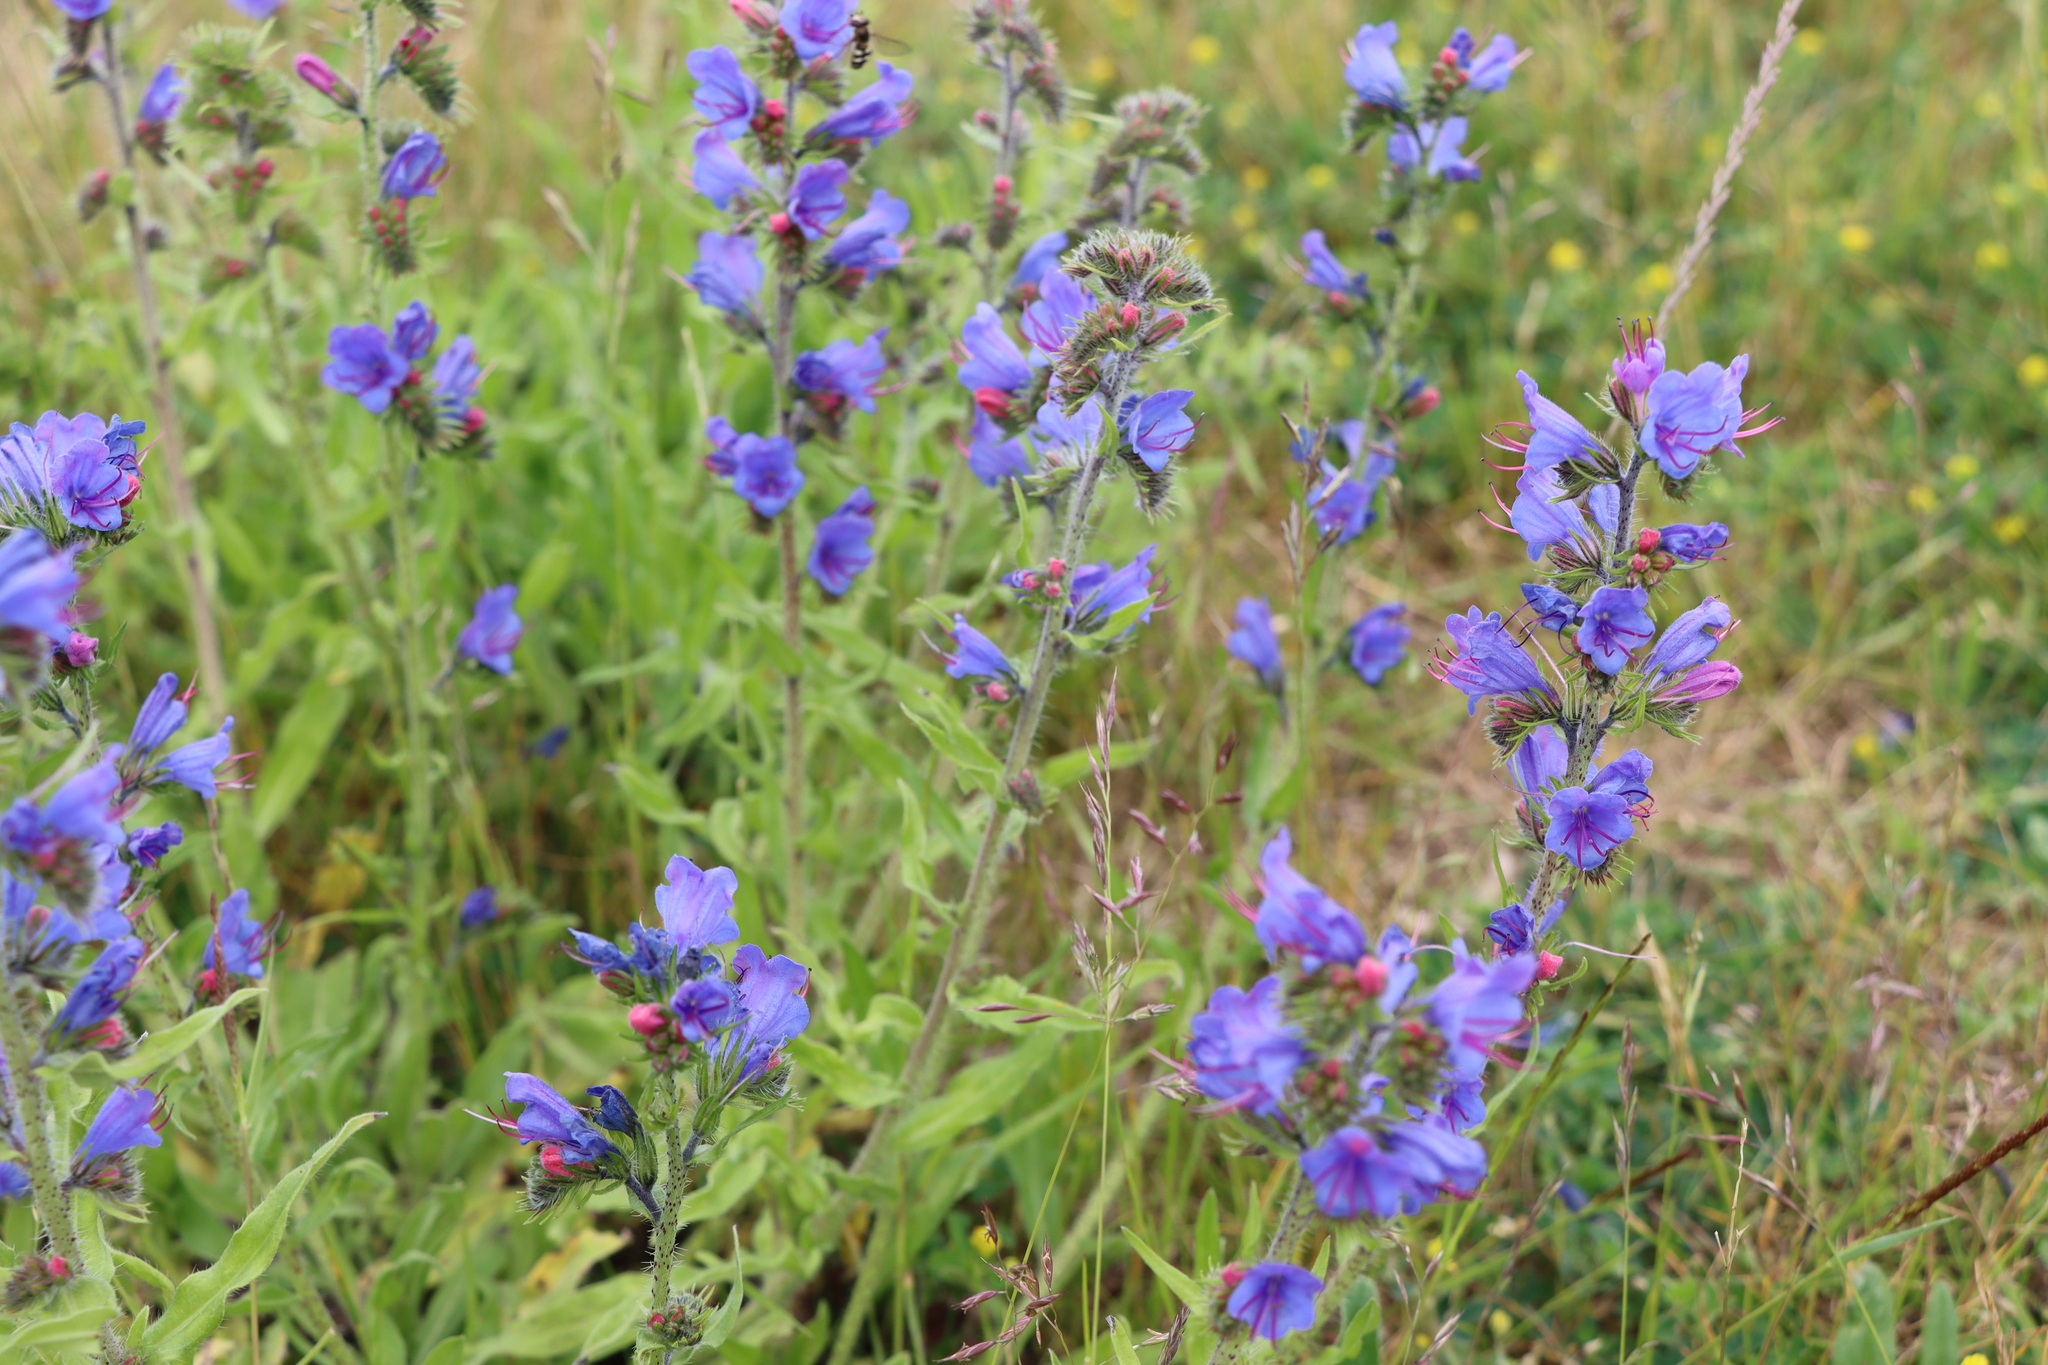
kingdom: Plantae
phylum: Tracheophyta
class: Magnoliopsida
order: Boraginales
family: Boraginaceae
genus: Echium
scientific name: Echium vulgare
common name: Common viper's bugloss
